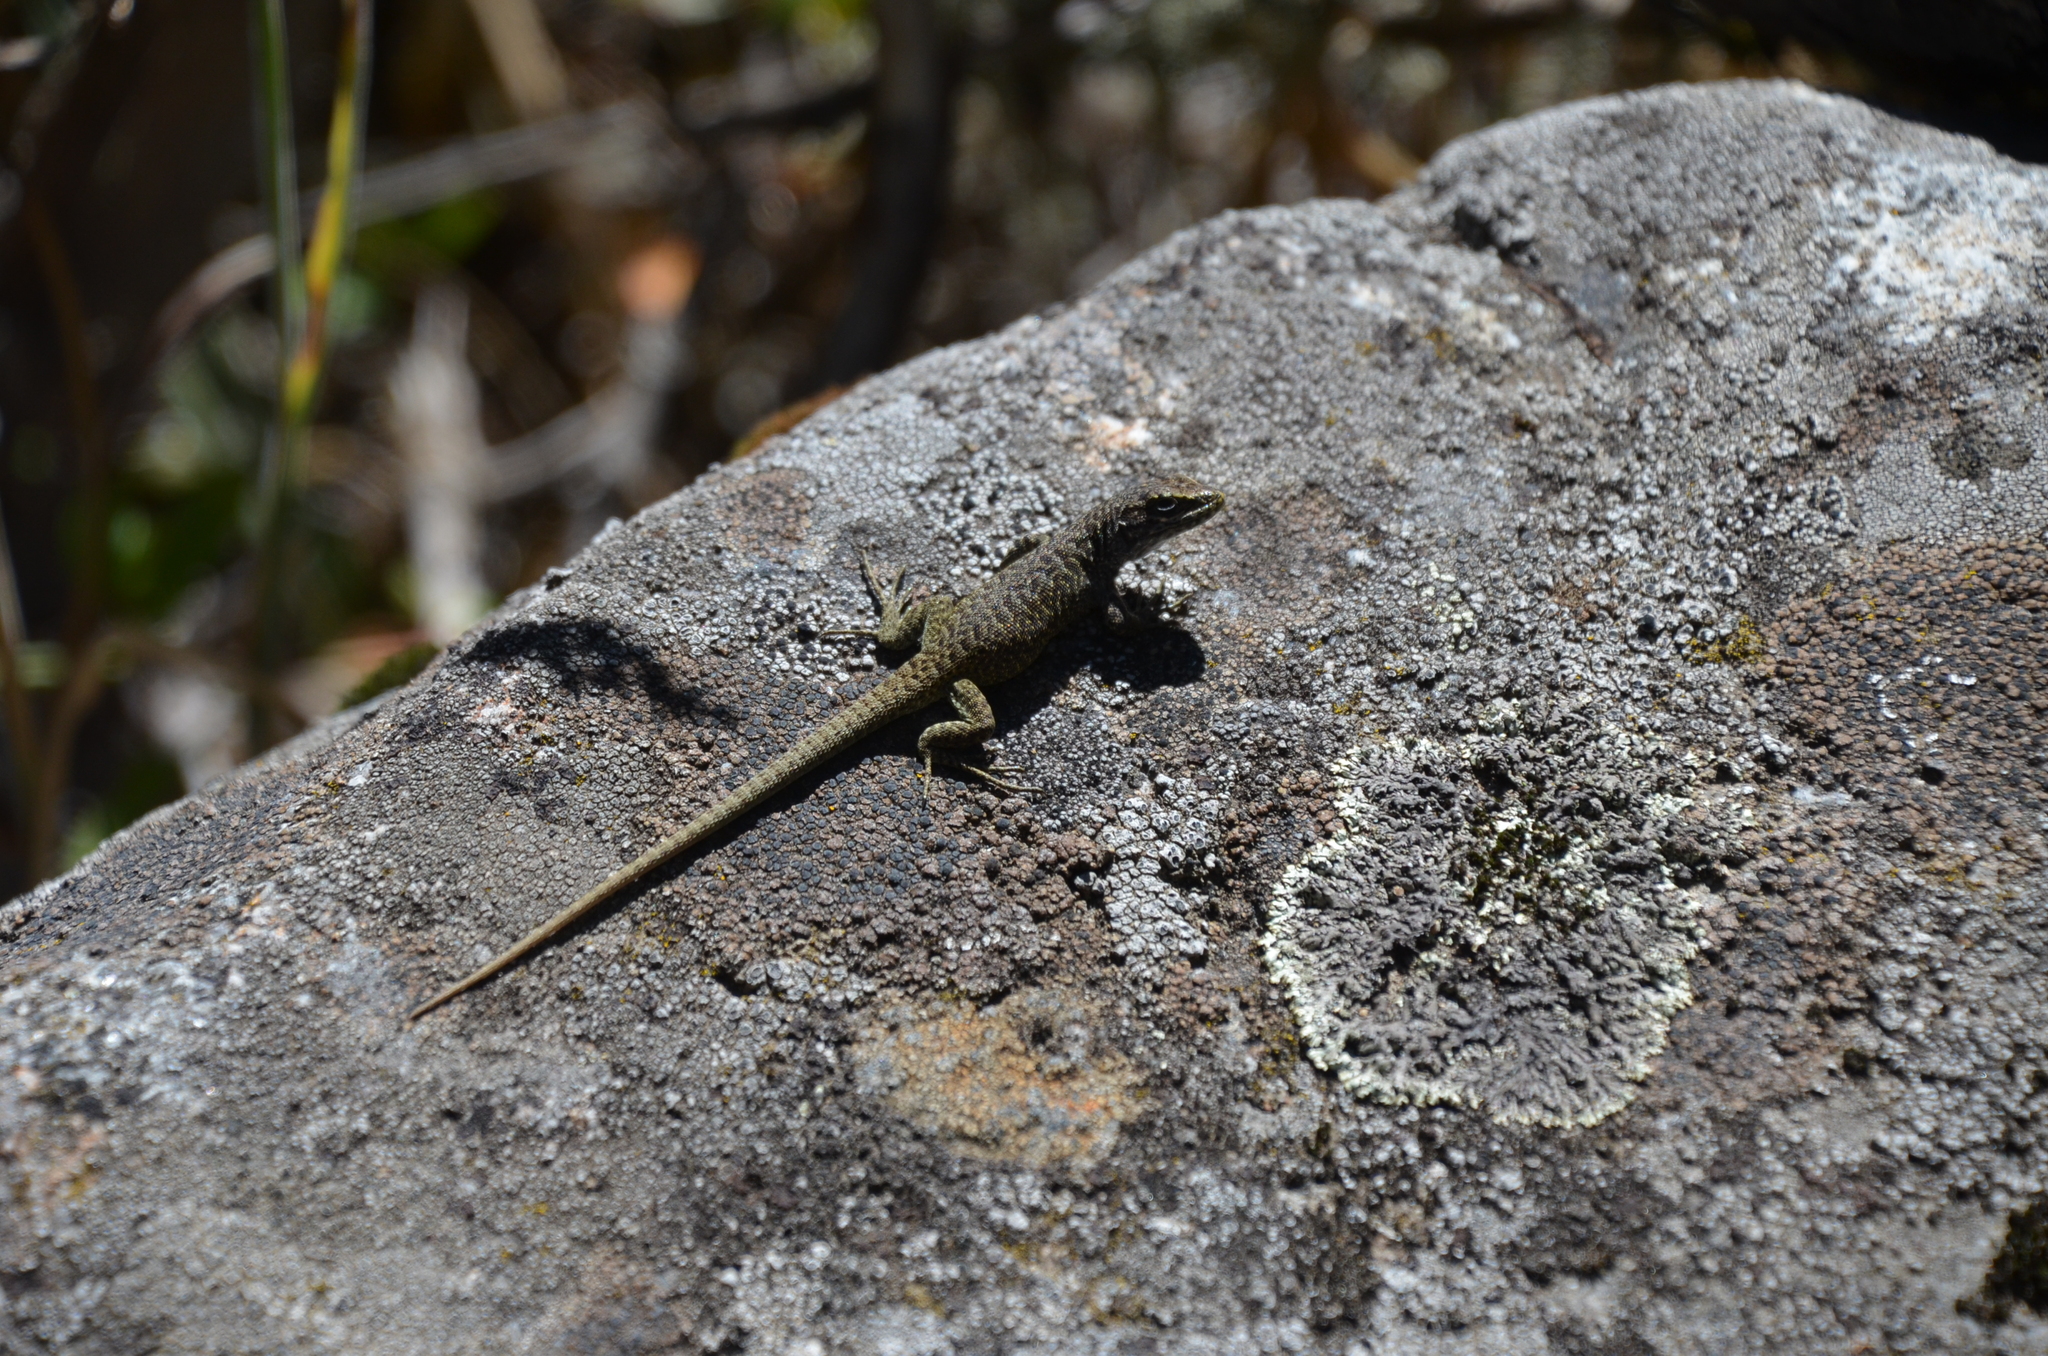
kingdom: Animalia
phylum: Chordata
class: Squamata
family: Liolaemidae
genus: Liolaemus
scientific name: Liolaemus elongatus
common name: Elongate tree iguana
